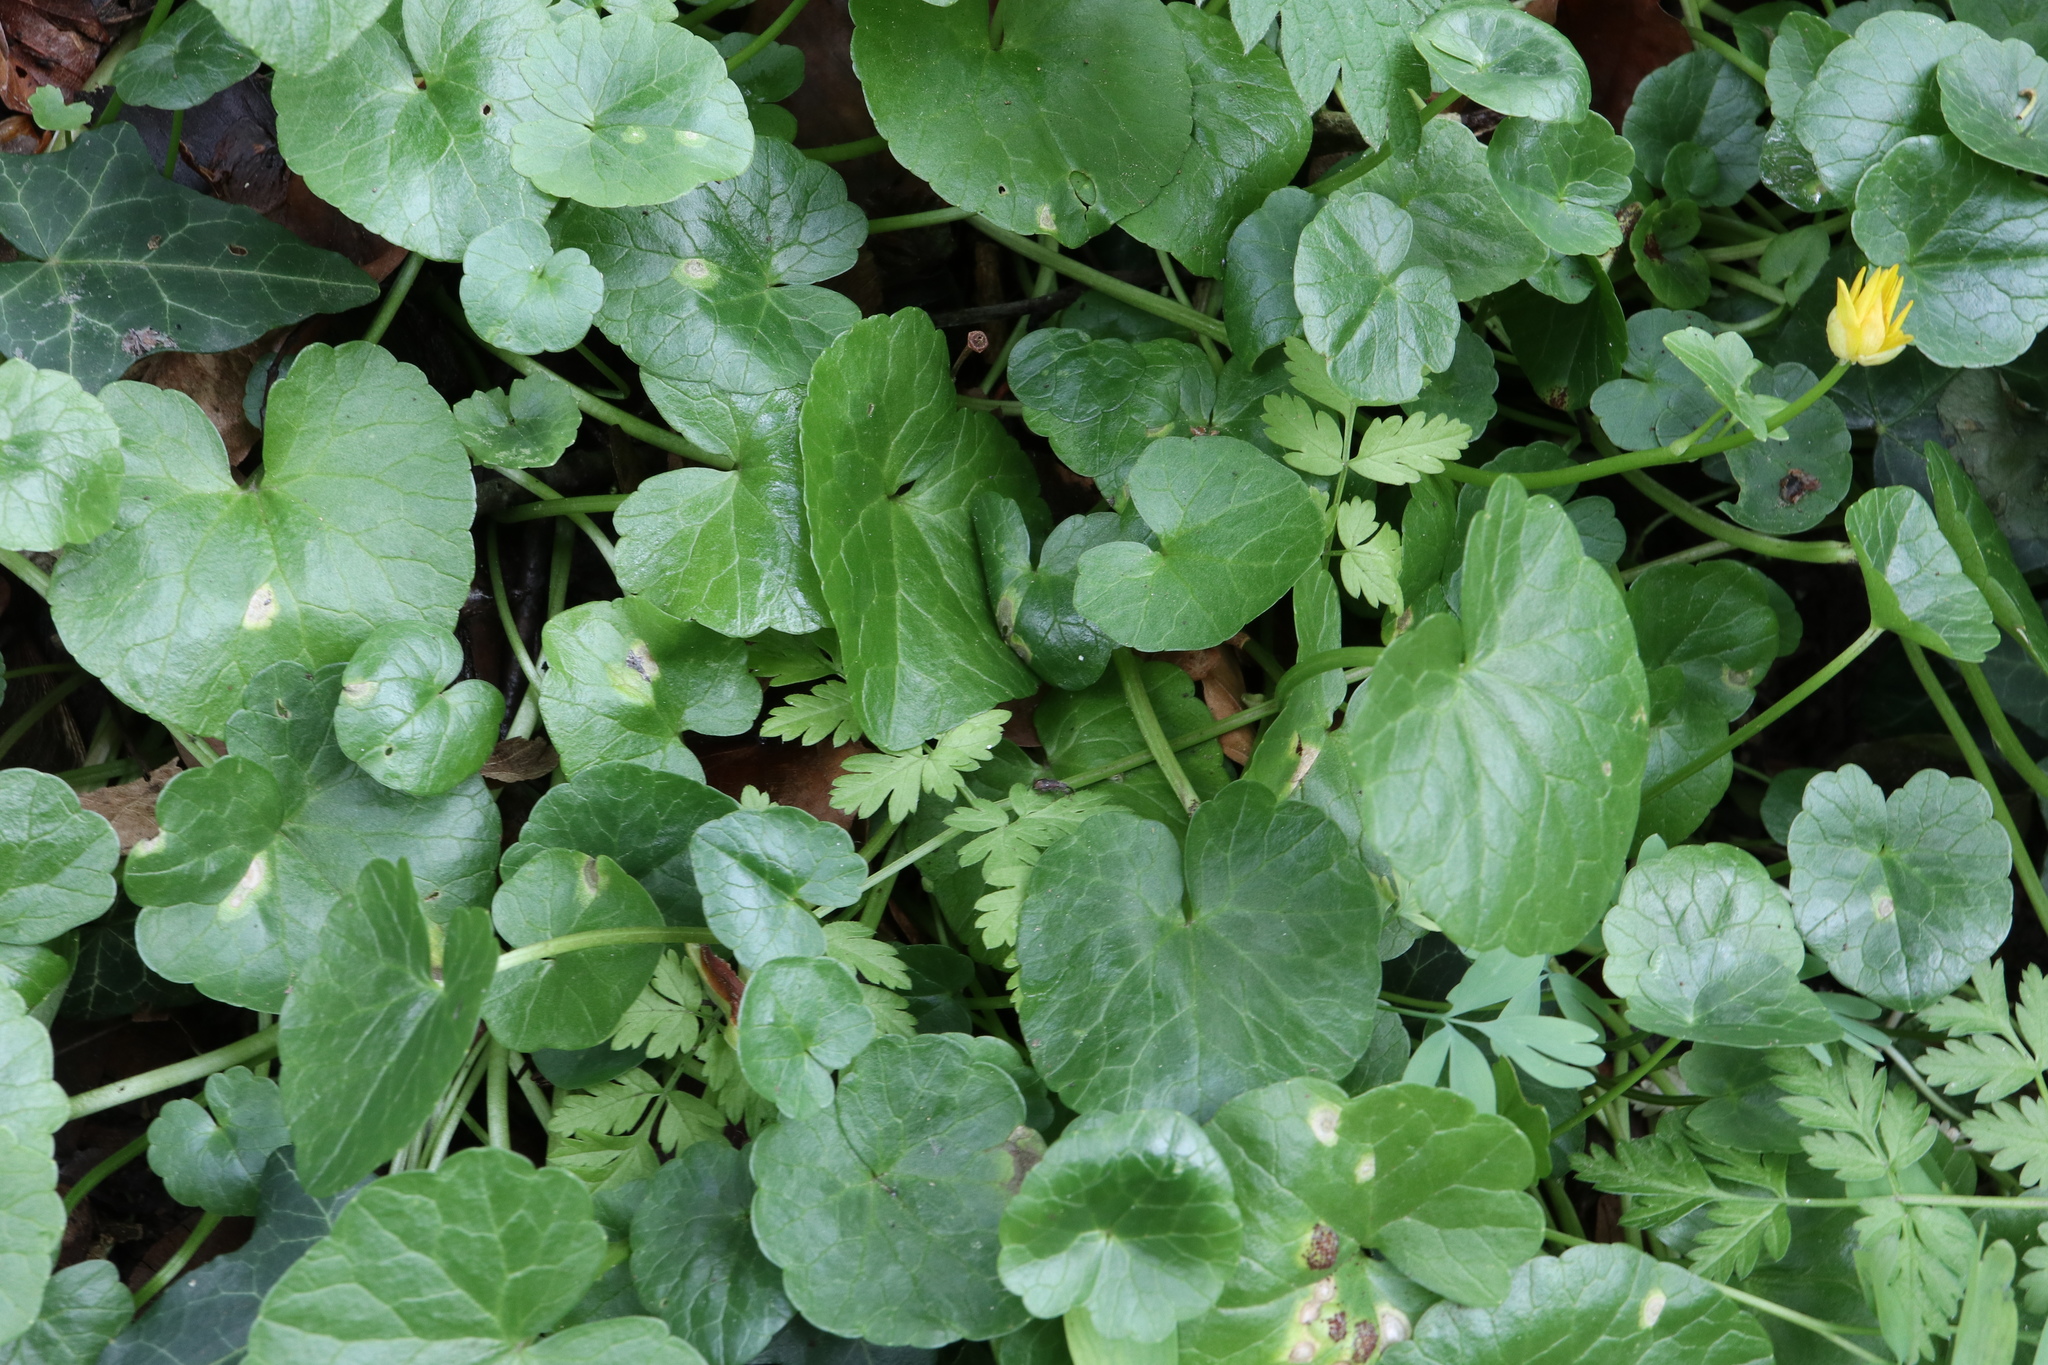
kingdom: Plantae
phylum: Tracheophyta
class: Magnoliopsida
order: Ranunculales
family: Ranunculaceae
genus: Ficaria
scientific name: Ficaria verna
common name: Lesser celandine
